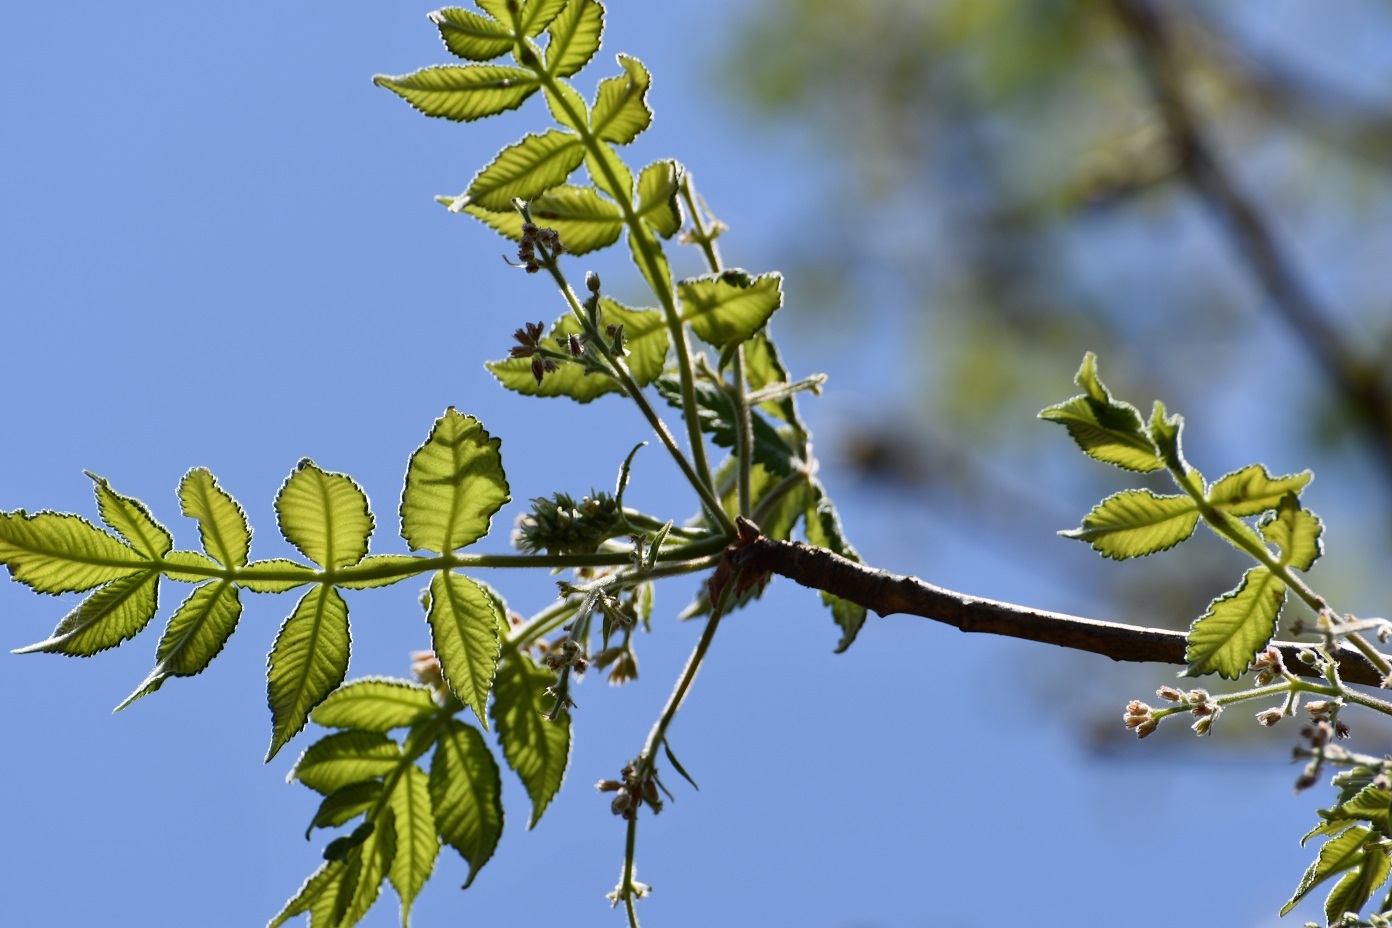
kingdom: Plantae
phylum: Tracheophyta
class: Magnoliopsida
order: Sapindales
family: Burseraceae
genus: Bursera
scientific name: Bursera excelsa
